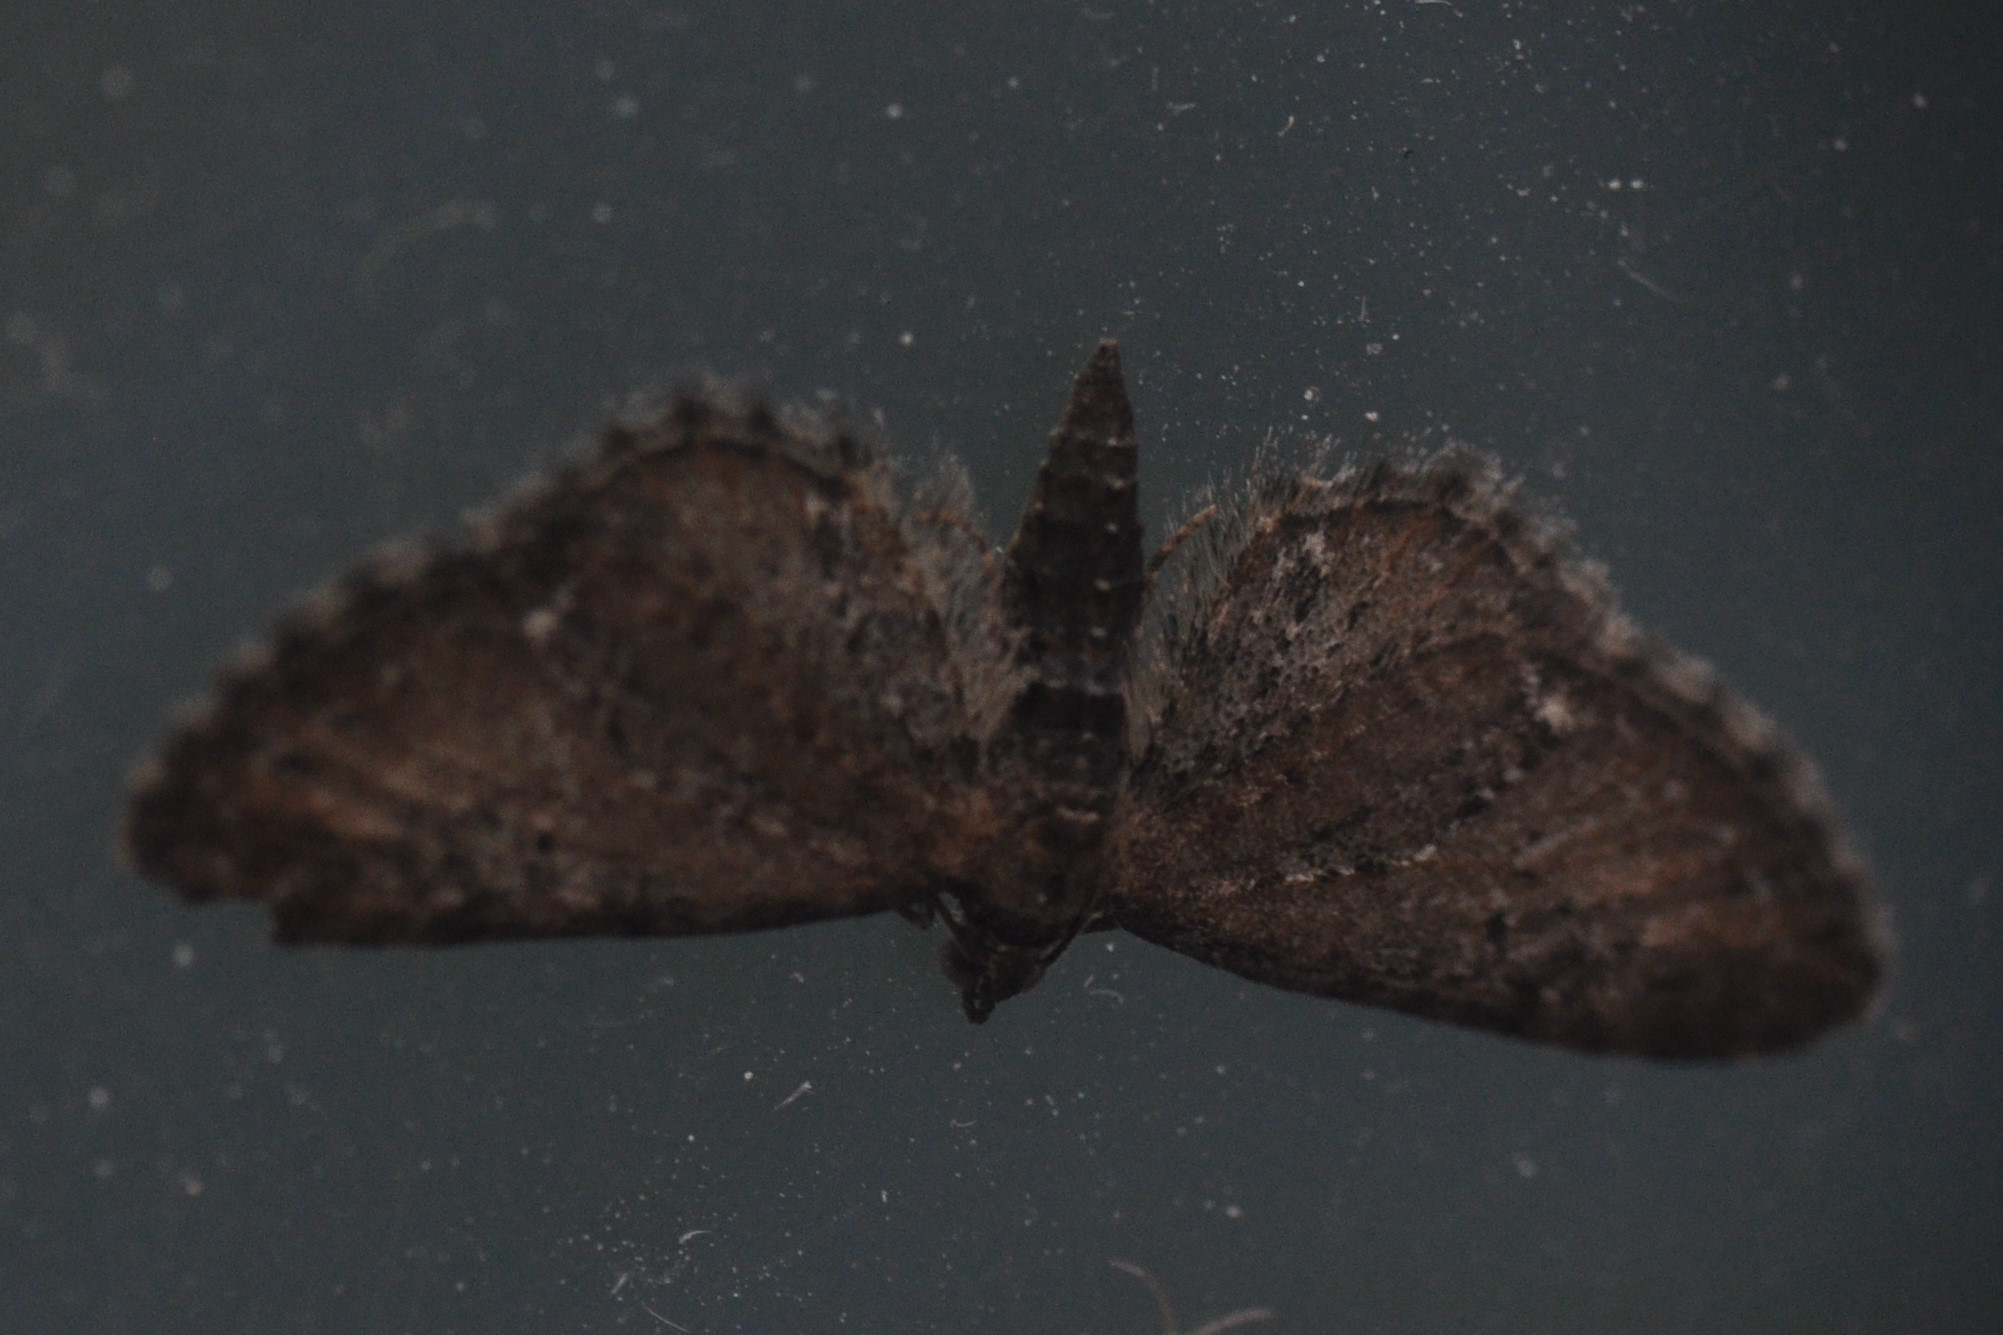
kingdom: Animalia
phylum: Arthropoda
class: Insecta
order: Lepidoptera
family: Geometridae
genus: Eupithecia
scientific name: Eupithecia vulgata
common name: Common pug
